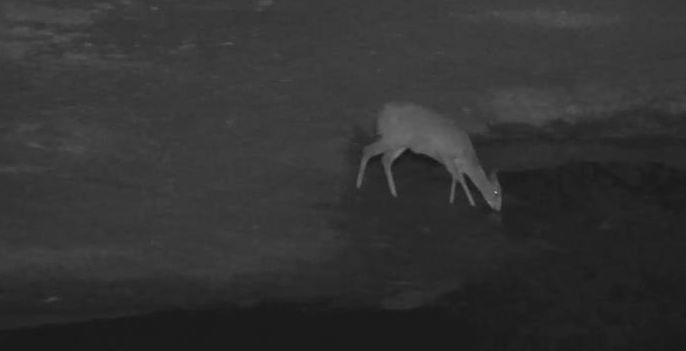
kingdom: Animalia
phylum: Chordata
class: Mammalia
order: Artiodactyla
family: Bovidae
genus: Sylvicapra
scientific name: Sylvicapra grimmia
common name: Bush duiker
